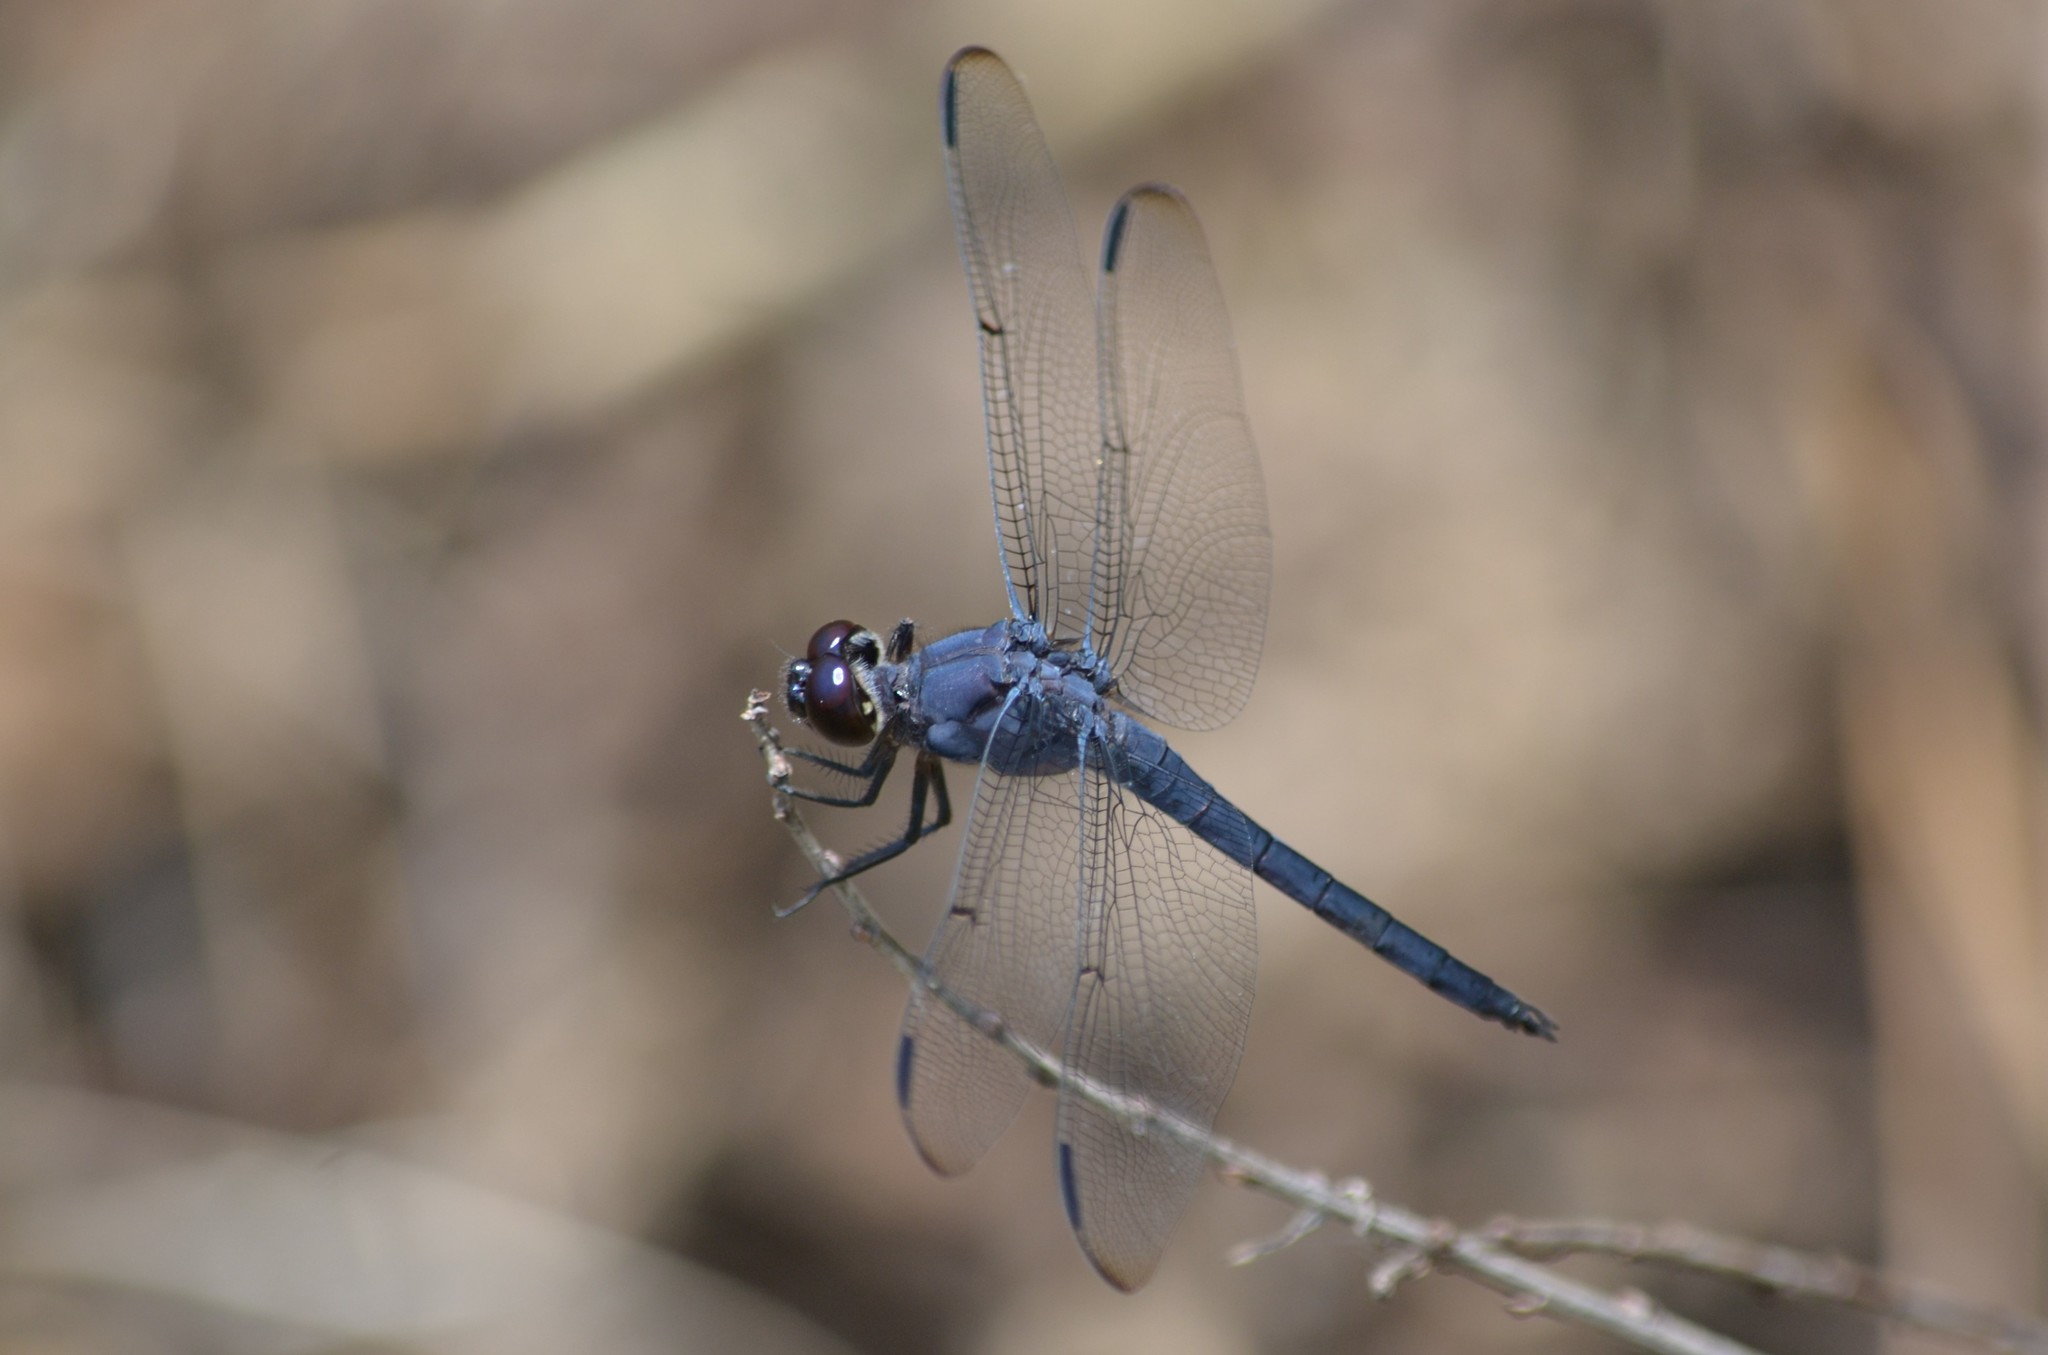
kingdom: Animalia
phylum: Arthropoda
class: Insecta
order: Odonata
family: Libellulidae
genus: Libellula
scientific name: Libellula incesta
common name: Slaty skimmer
